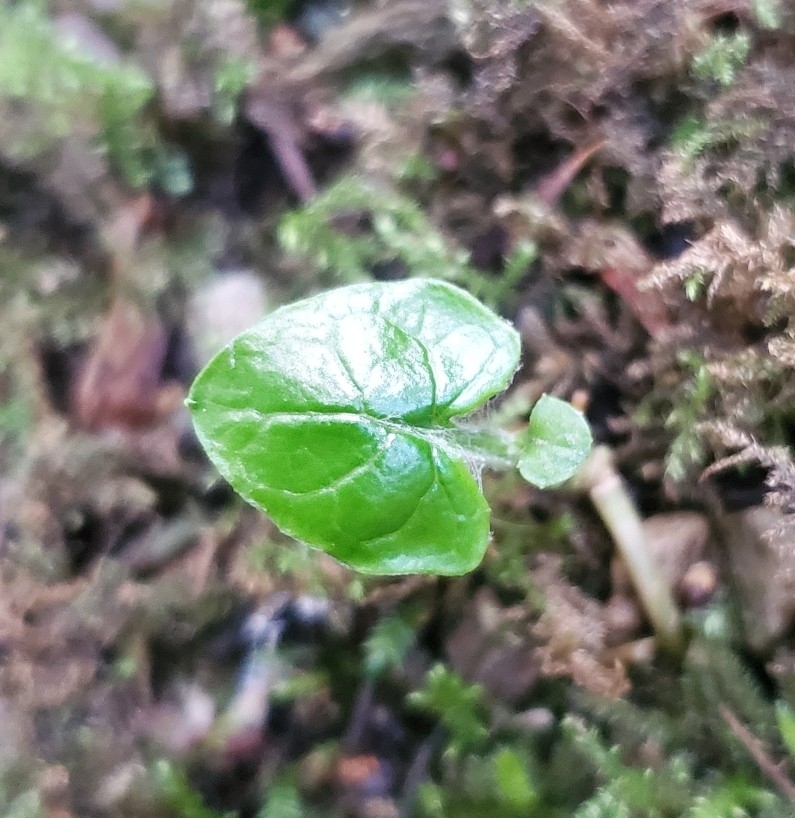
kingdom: Plantae
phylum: Tracheophyta
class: Magnoliopsida
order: Asterales
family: Asteraceae
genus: Adenocaulon
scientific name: Adenocaulon bicolor
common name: Trailplant
